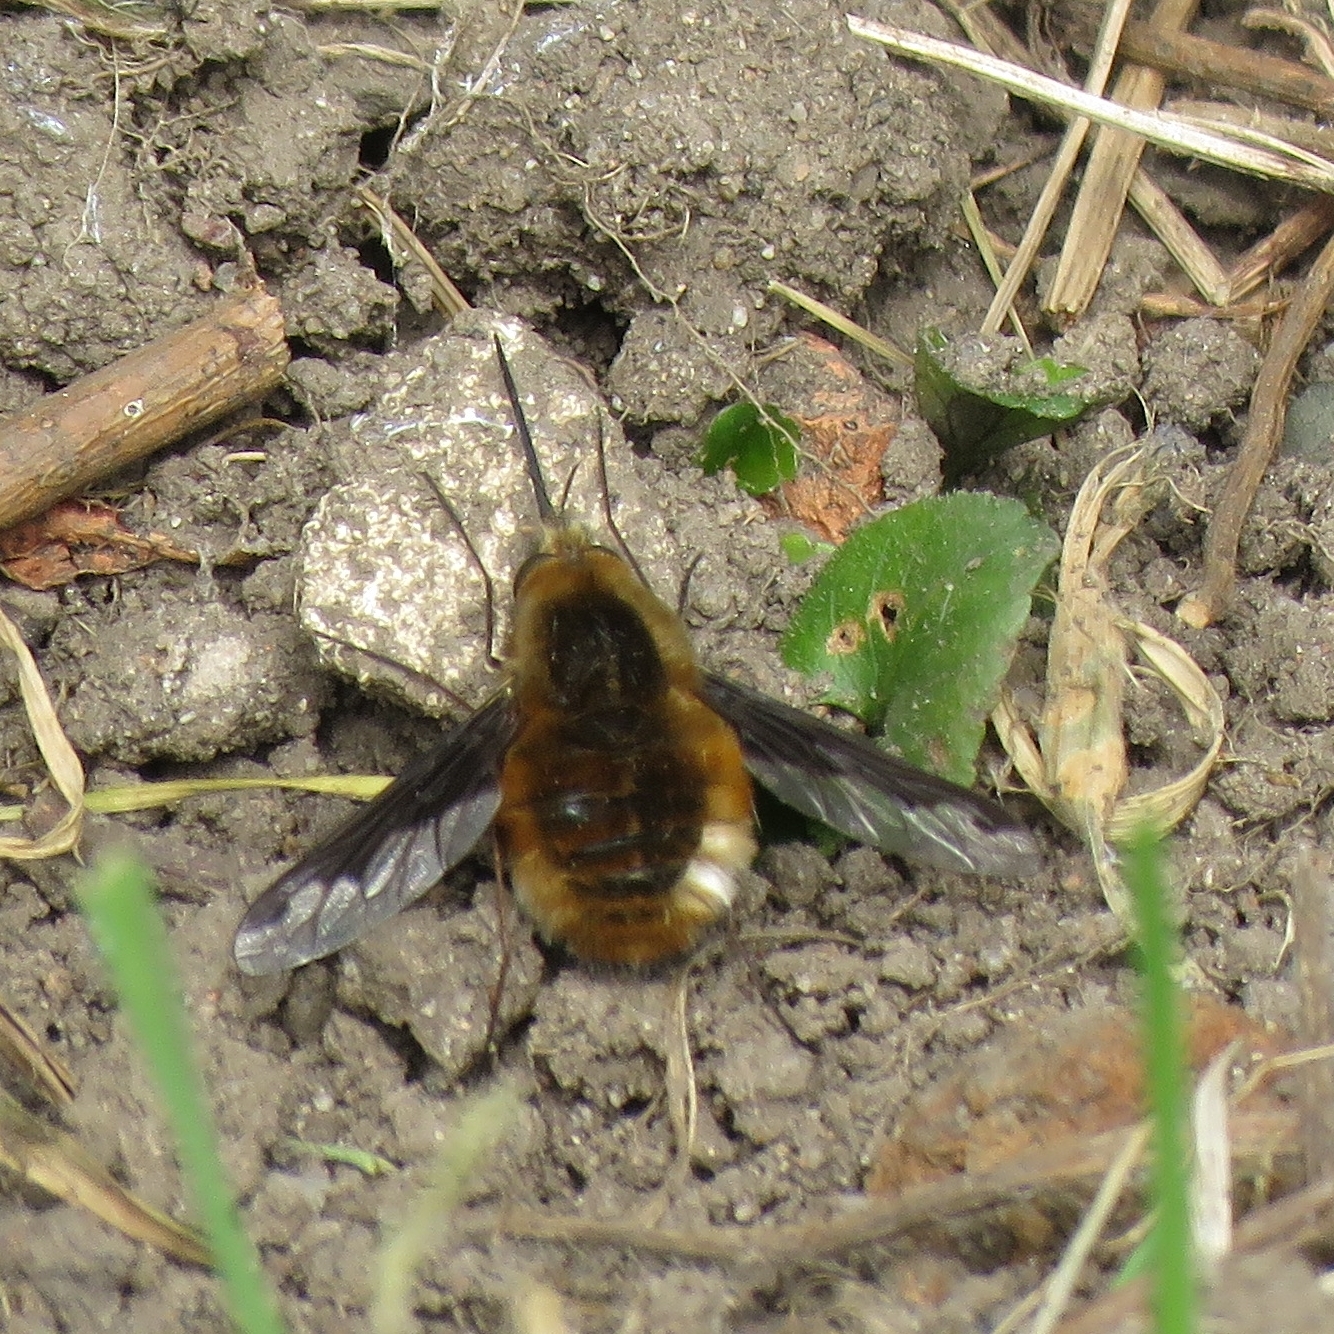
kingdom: Animalia
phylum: Arthropoda
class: Insecta
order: Diptera
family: Bombyliidae
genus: Bombylius
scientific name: Bombylius major
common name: Bee fly
